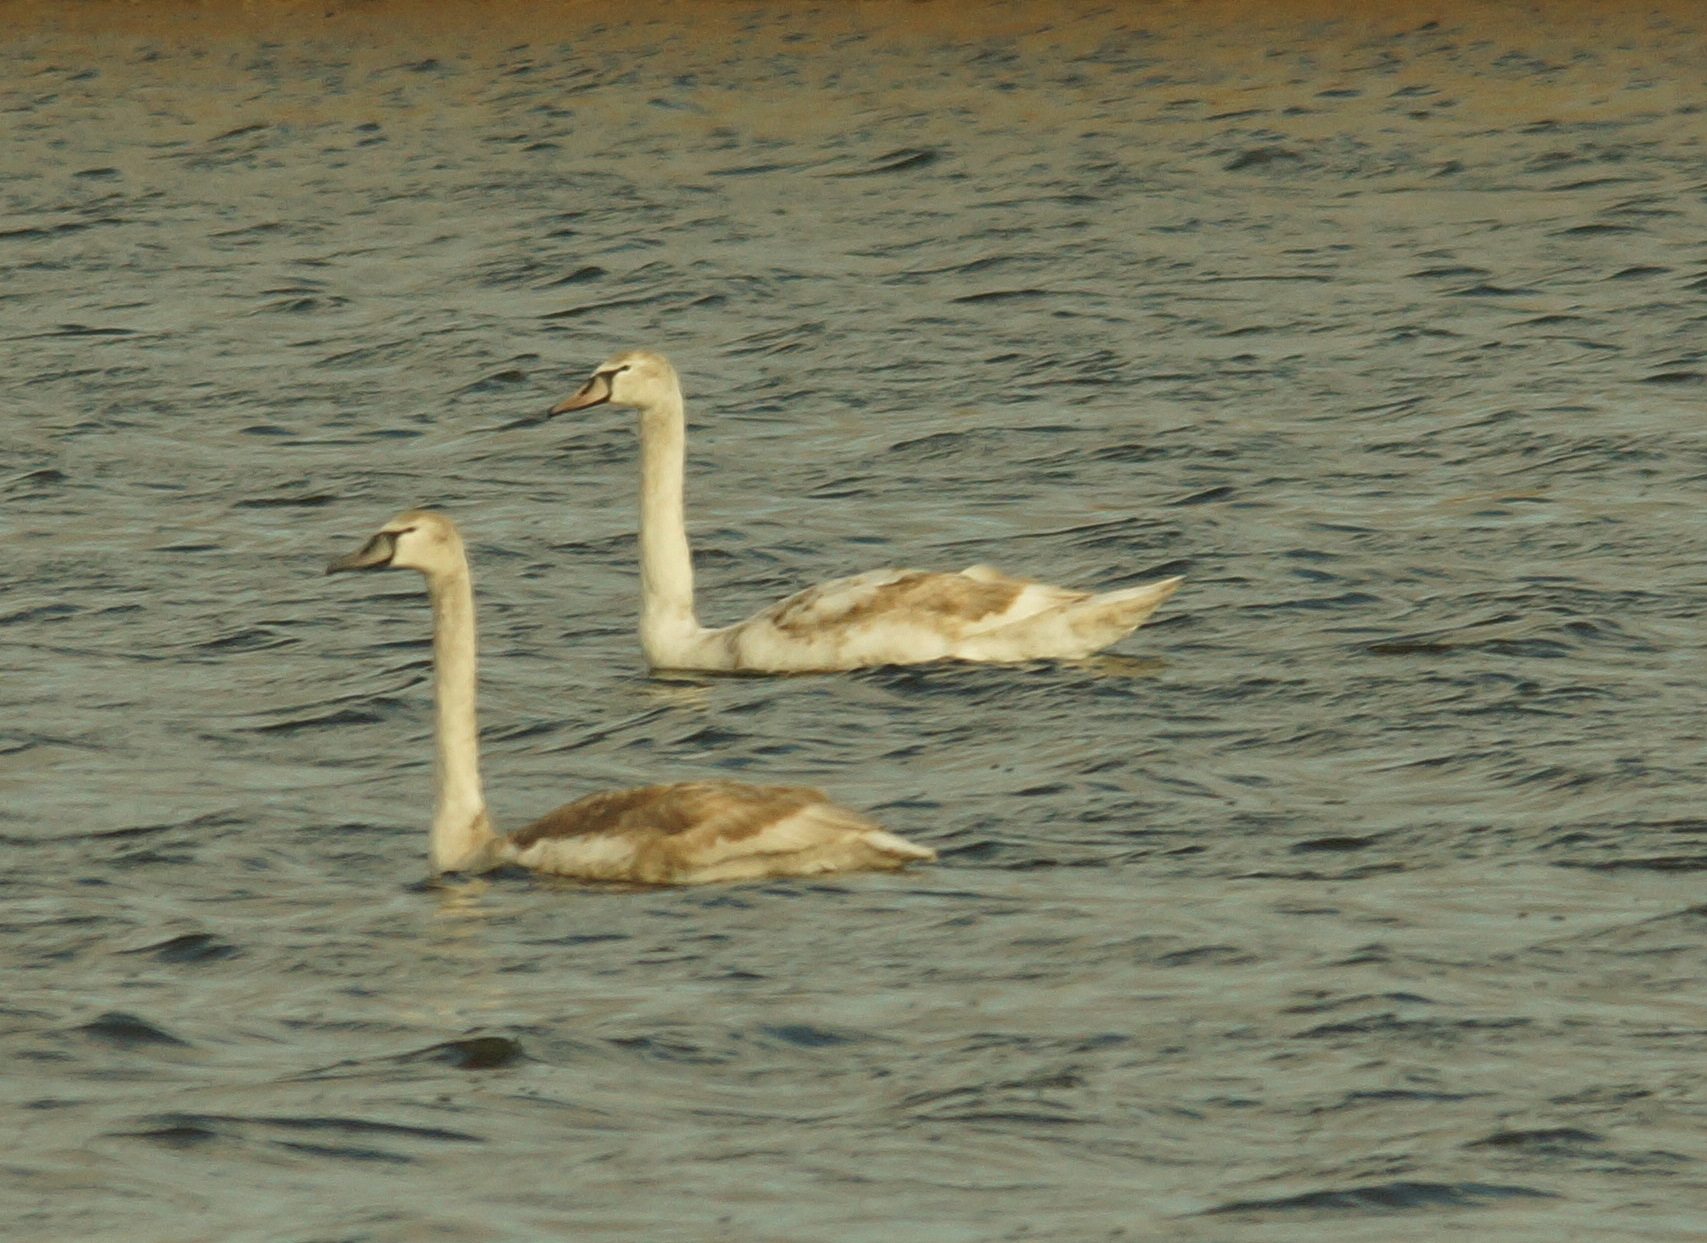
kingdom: Animalia
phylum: Chordata
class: Aves
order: Anseriformes
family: Anatidae
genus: Cygnus
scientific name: Cygnus olor
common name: Mute swan
